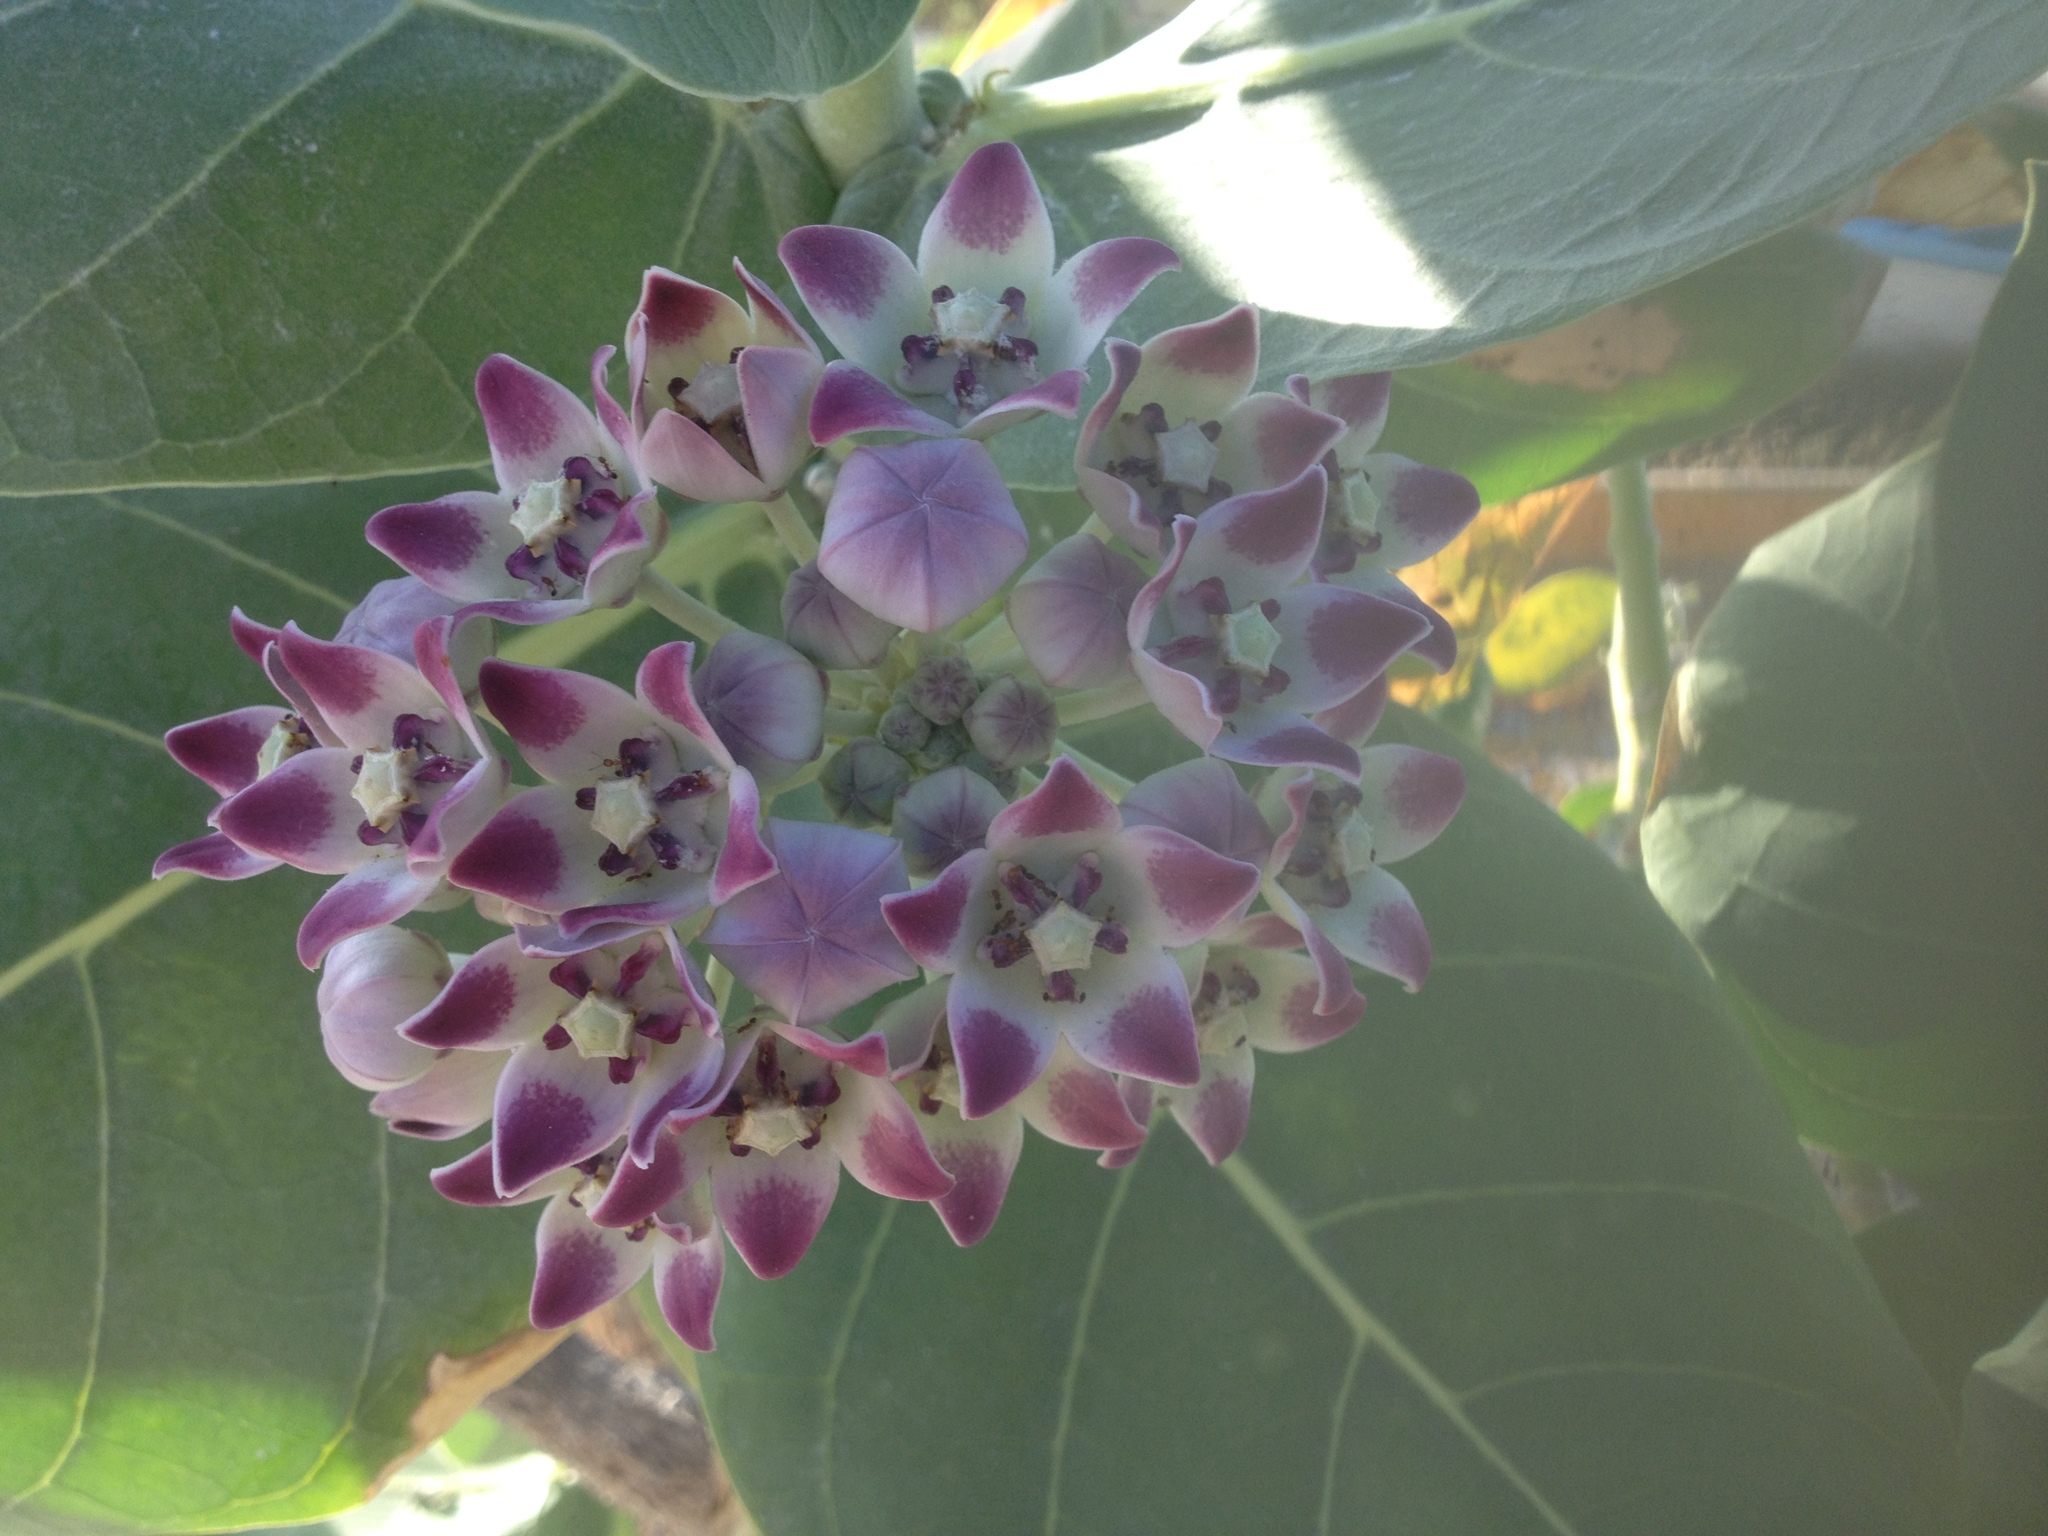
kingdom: Plantae
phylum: Tracheophyta
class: Magnoliopsida
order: Gentianales
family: Apocynaceae
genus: Calotropis
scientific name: Calotropis procera
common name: Roostertree
